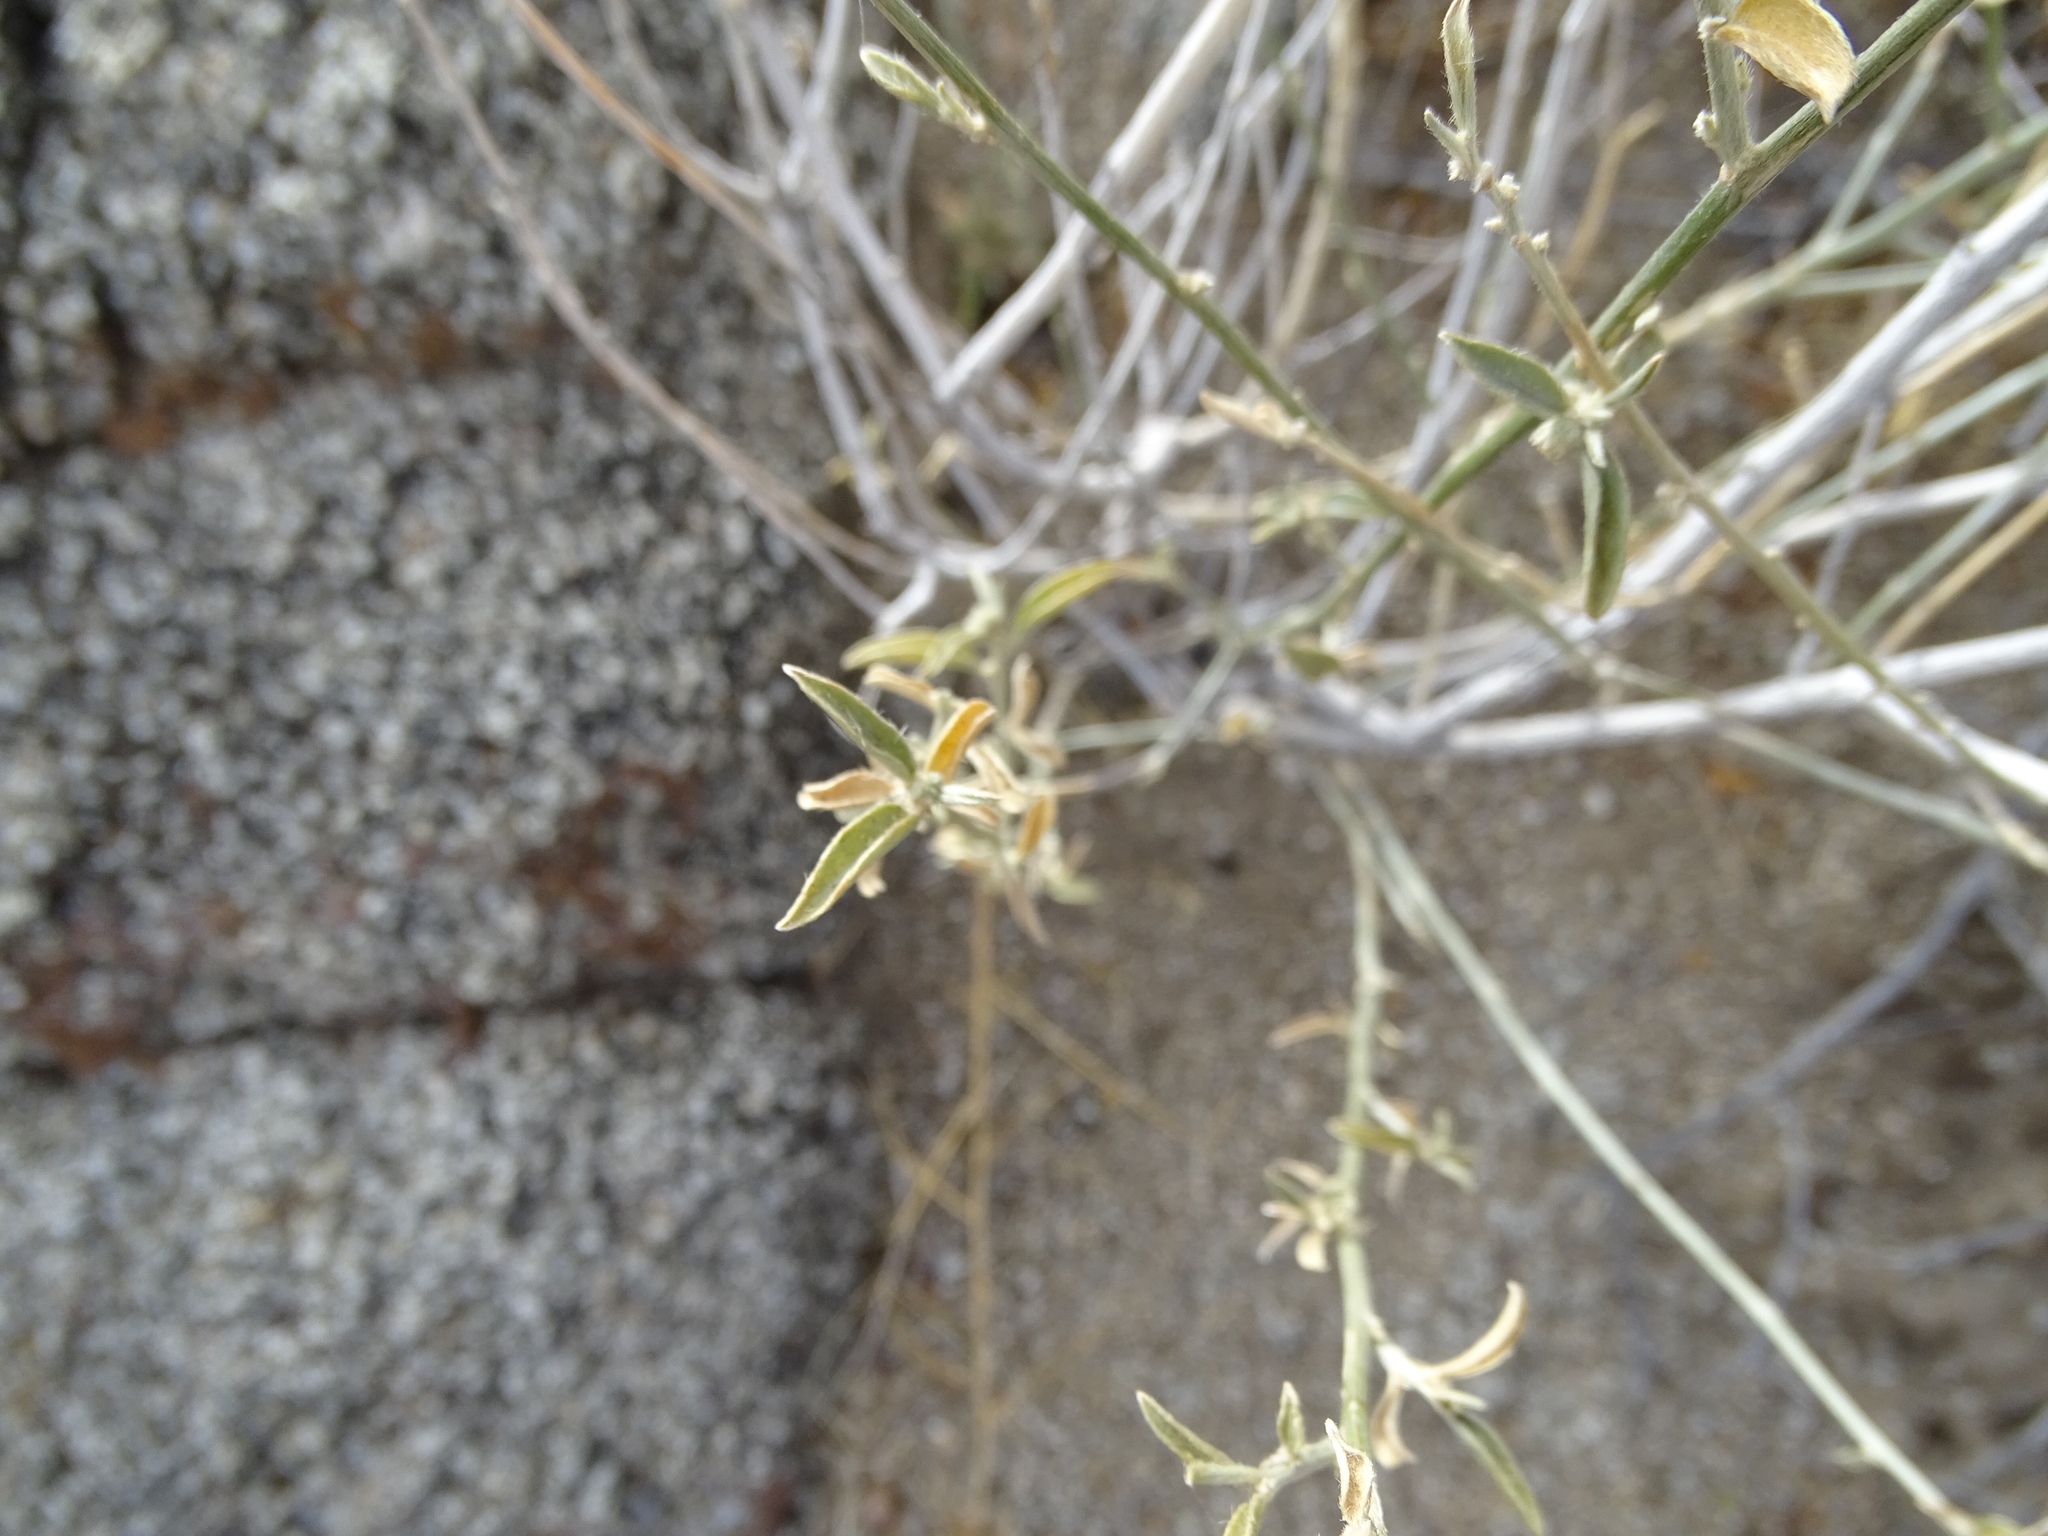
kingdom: Plantae
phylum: Tracheophyta
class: Magnoliopsida
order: Malpighiales
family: Euphorbiaceae
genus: Ditaxis
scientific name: Ditaxis lanceolata
